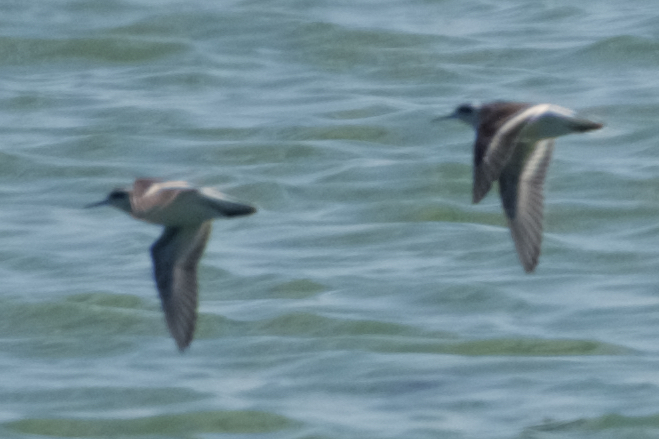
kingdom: Animalia
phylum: Chordata
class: Aves
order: Charadriiformes
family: Scolopacidae
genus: Phalaropus
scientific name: Phalaropus lobatus
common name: Red-necked phalarope
